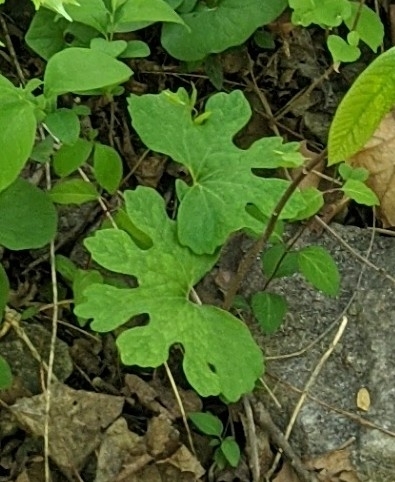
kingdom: Plantae
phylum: Tracheophyta
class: Magnoliopsida
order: Ranunculales
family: Papaveraceae
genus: Sanguinaria
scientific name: Sanguinaria canadensis
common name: Bloodroot
